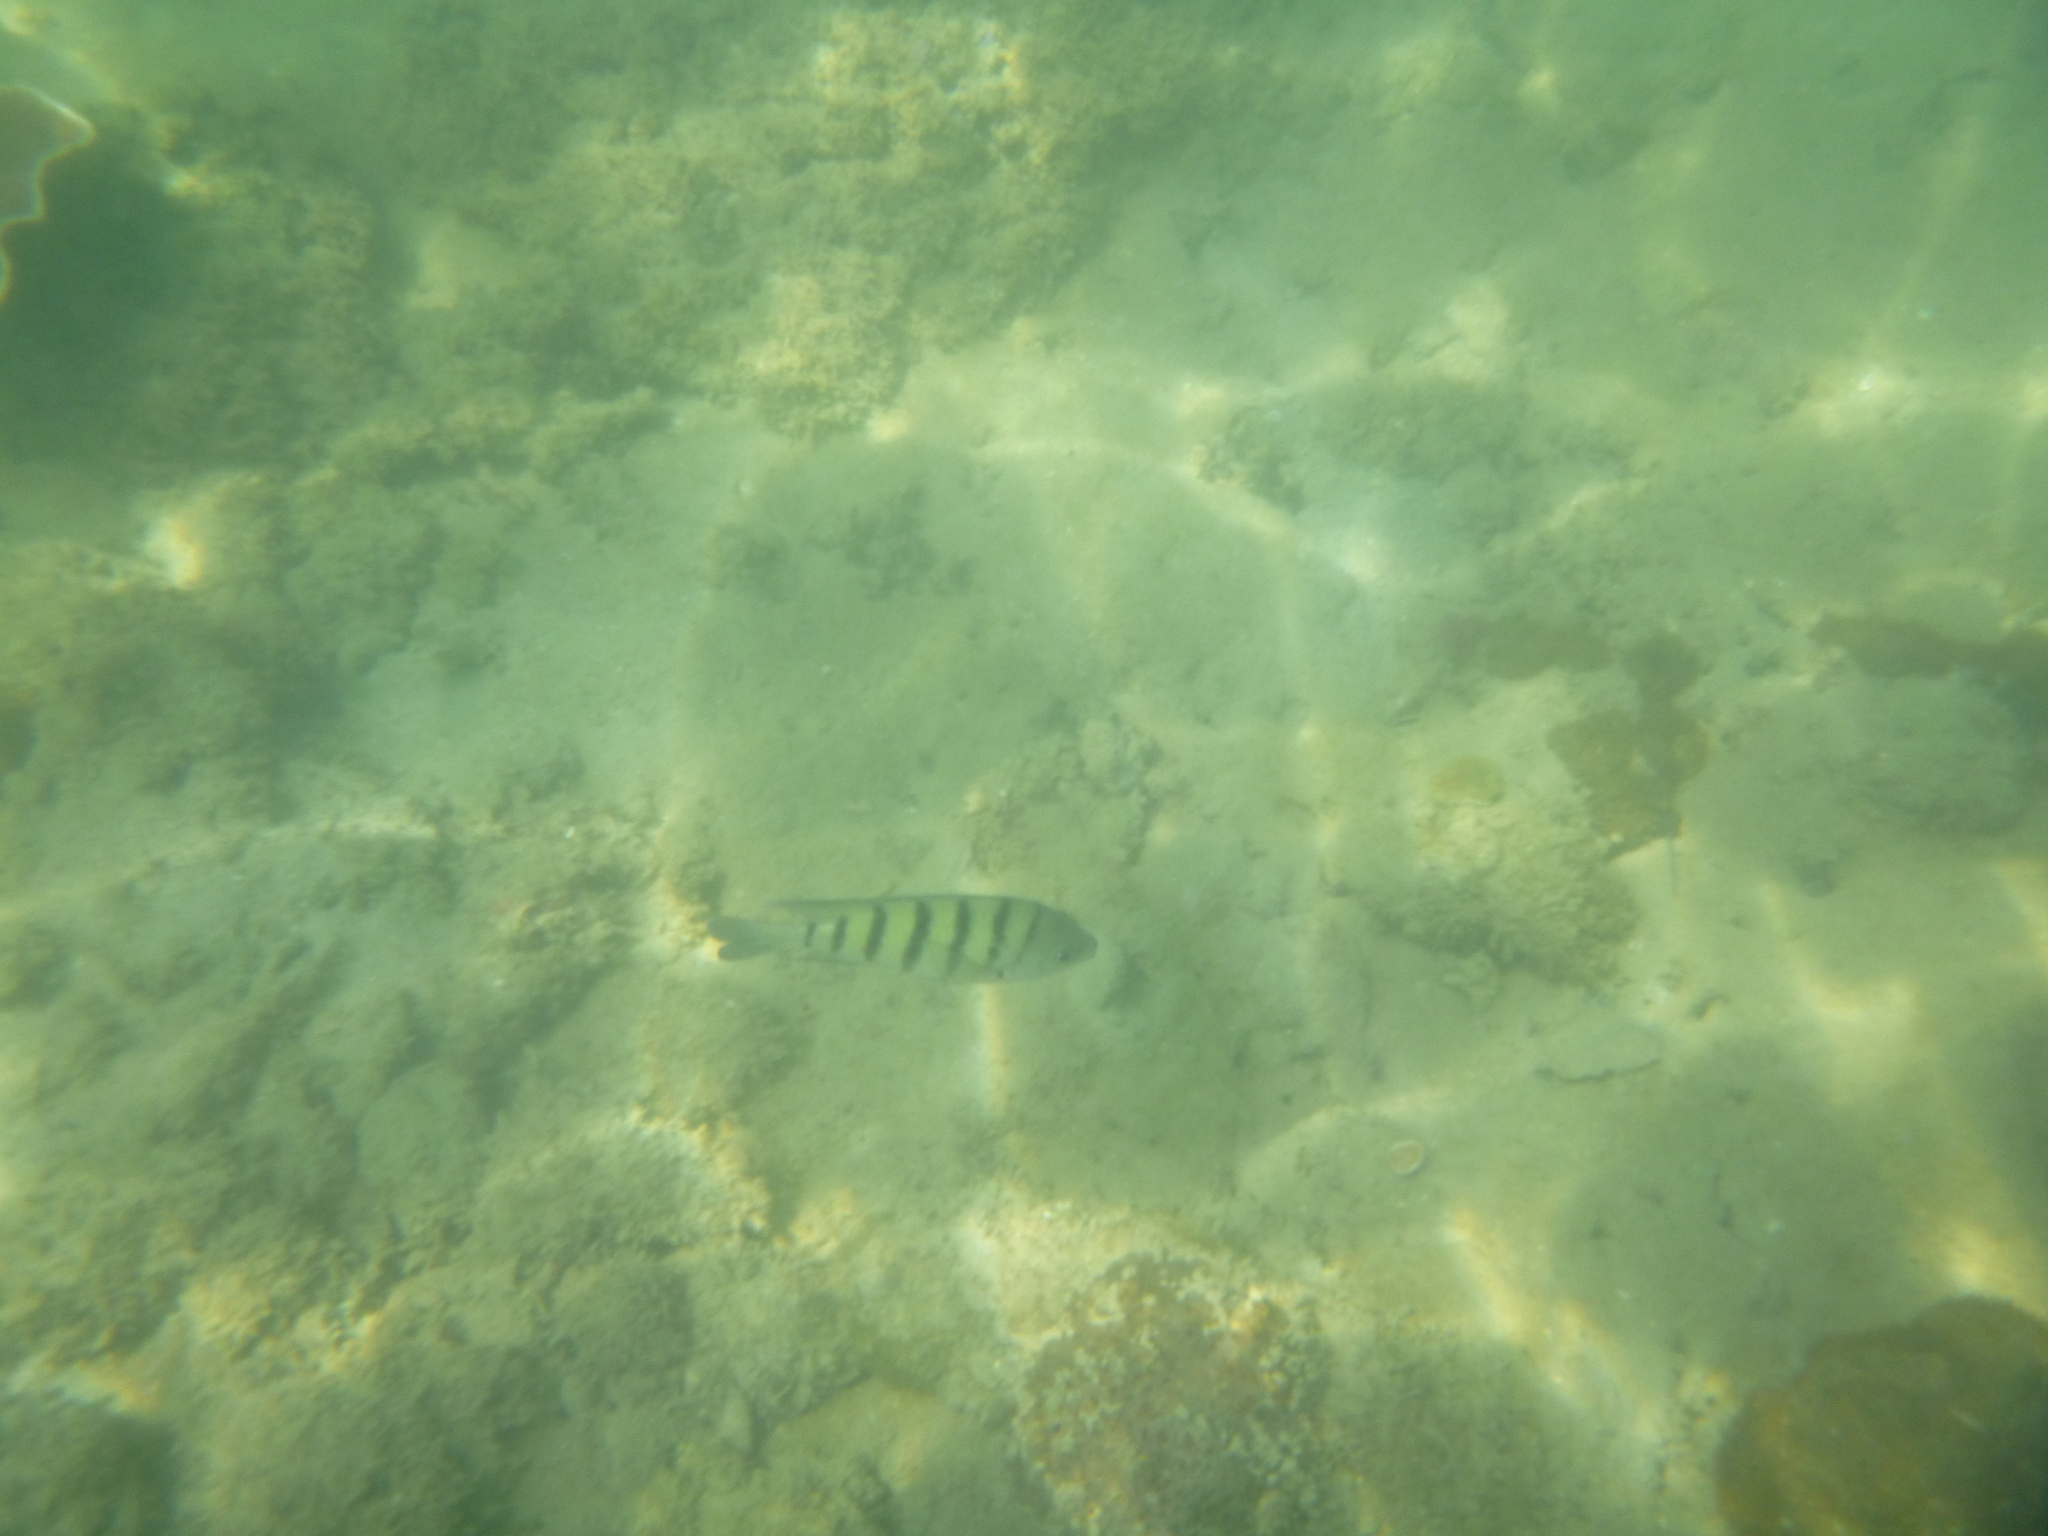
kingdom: Animalia
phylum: Chordata
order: Perciformes
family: Pomacentridae
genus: Abudefduf
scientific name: Abudefduf bengalensis
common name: Bengal sergeant
